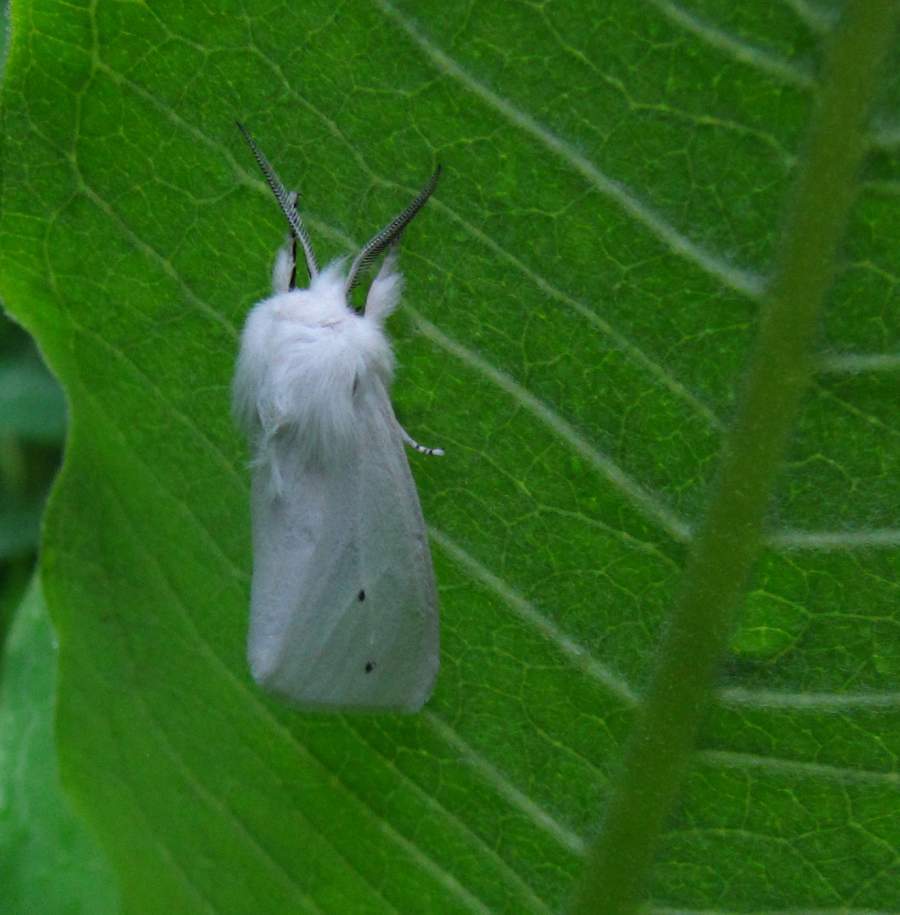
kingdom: Animalia
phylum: Arthropoda
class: Insecta
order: Lepidoptera
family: Erebidae
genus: Spilosoma
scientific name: Spilosoma virginica
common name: Virginia tiger moth
